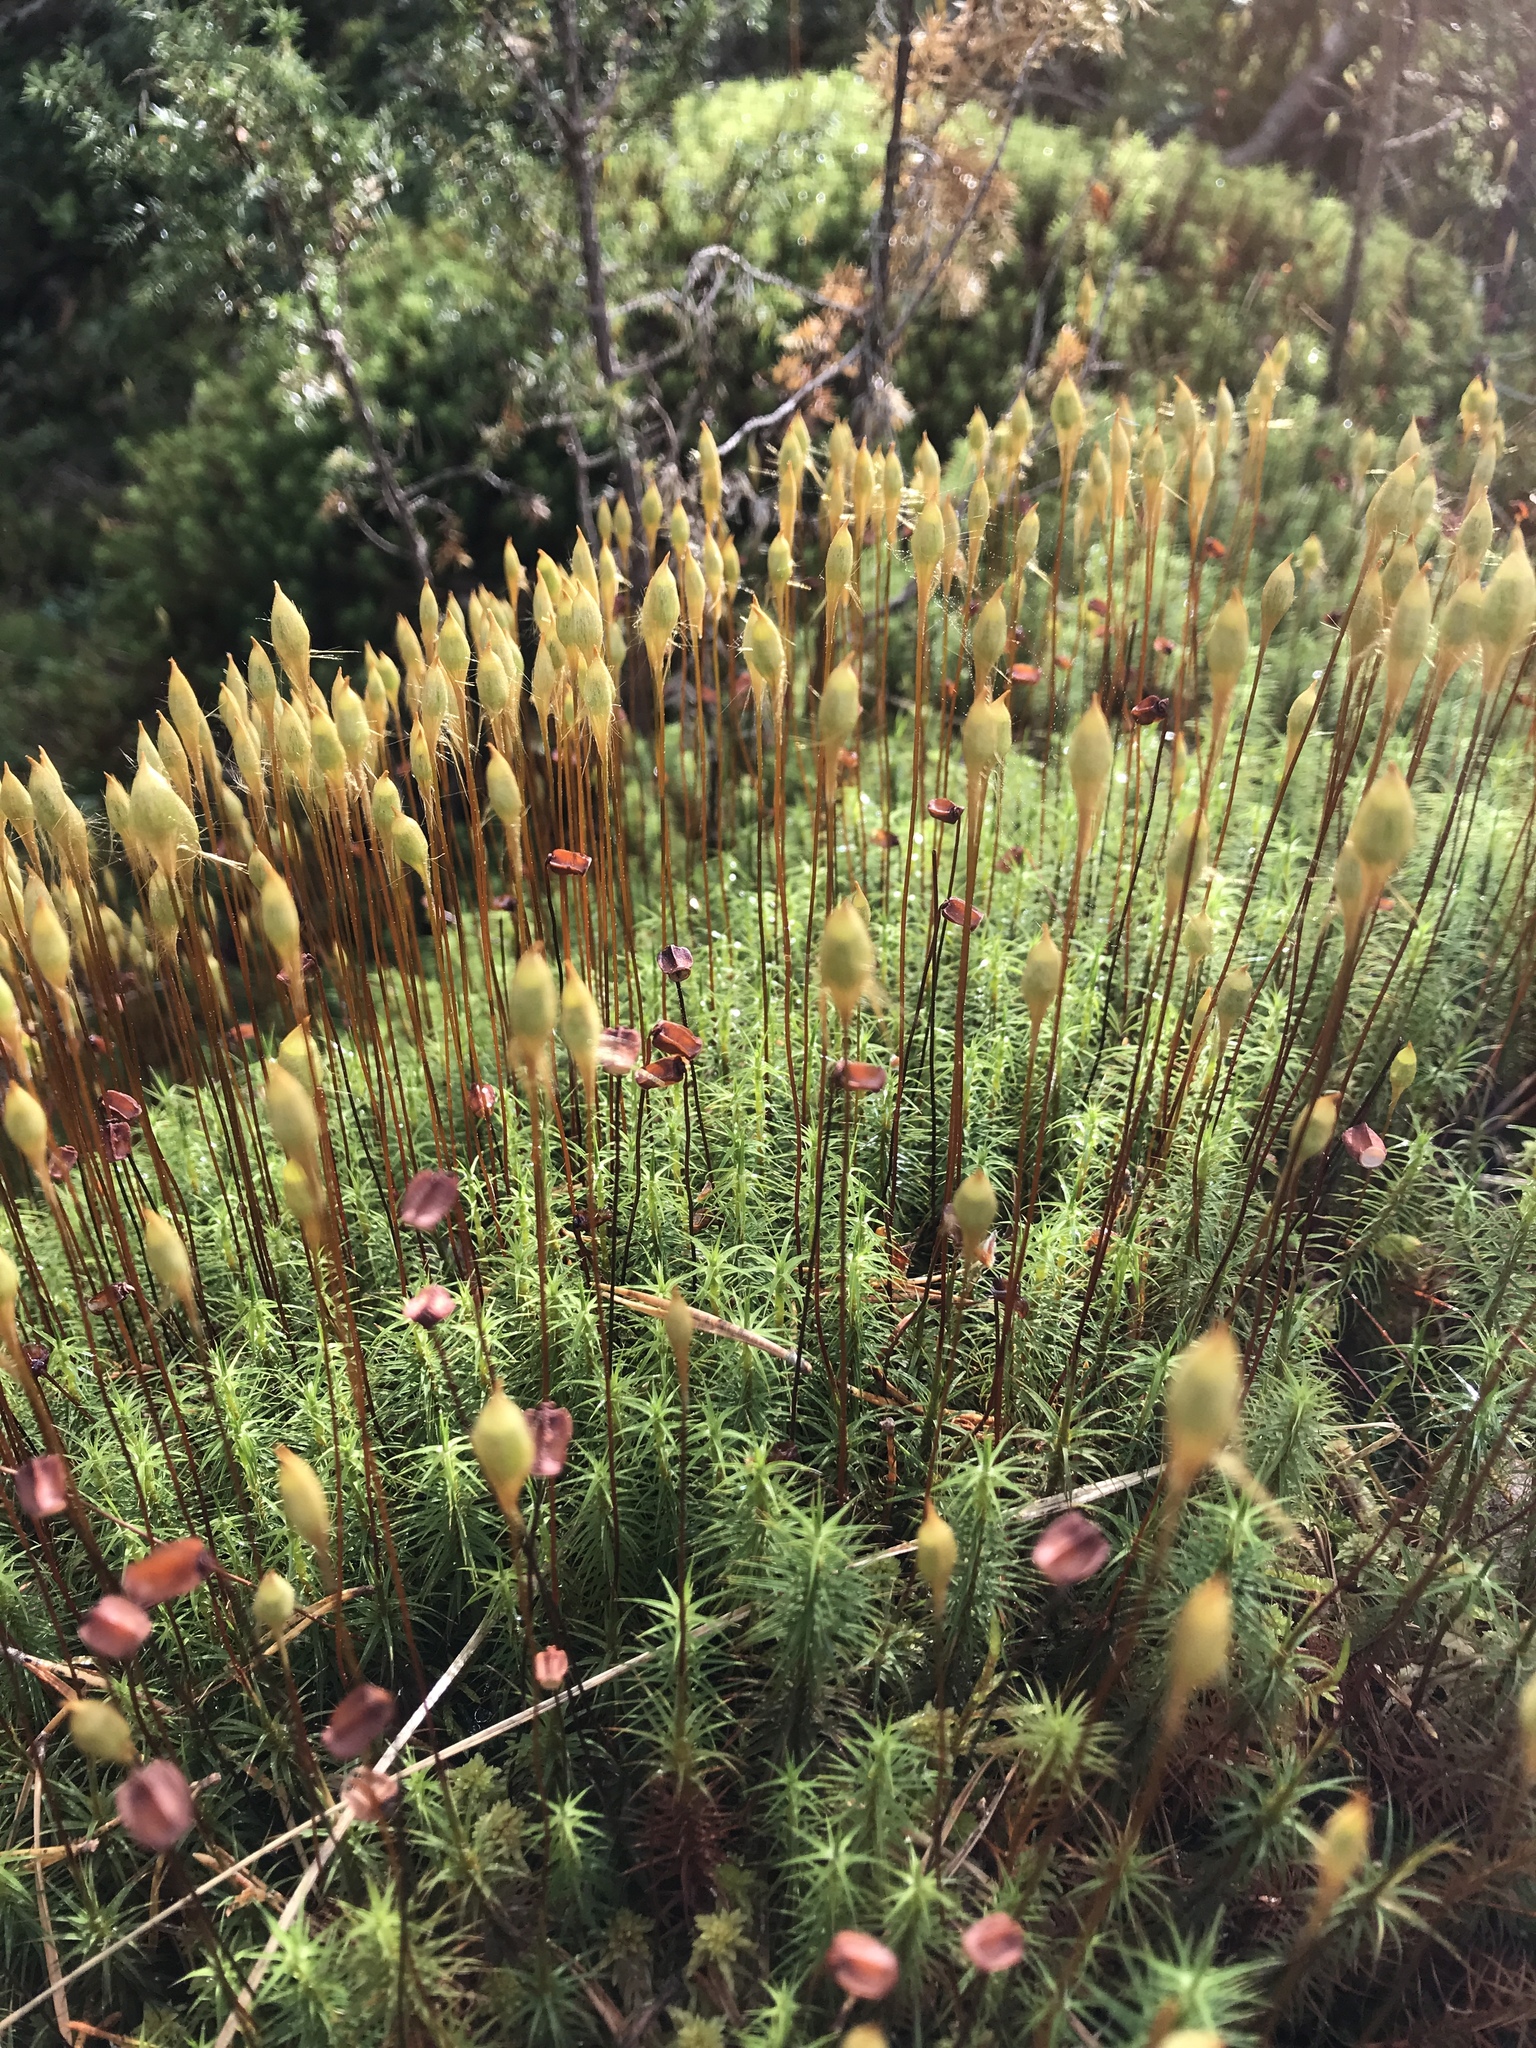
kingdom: Plantae
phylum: Bryophyta
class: Polytrichopsida
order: Polytrichales
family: Polytrichaceae
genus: Polytrichum
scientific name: Polytrichum commune
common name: Common haircap
